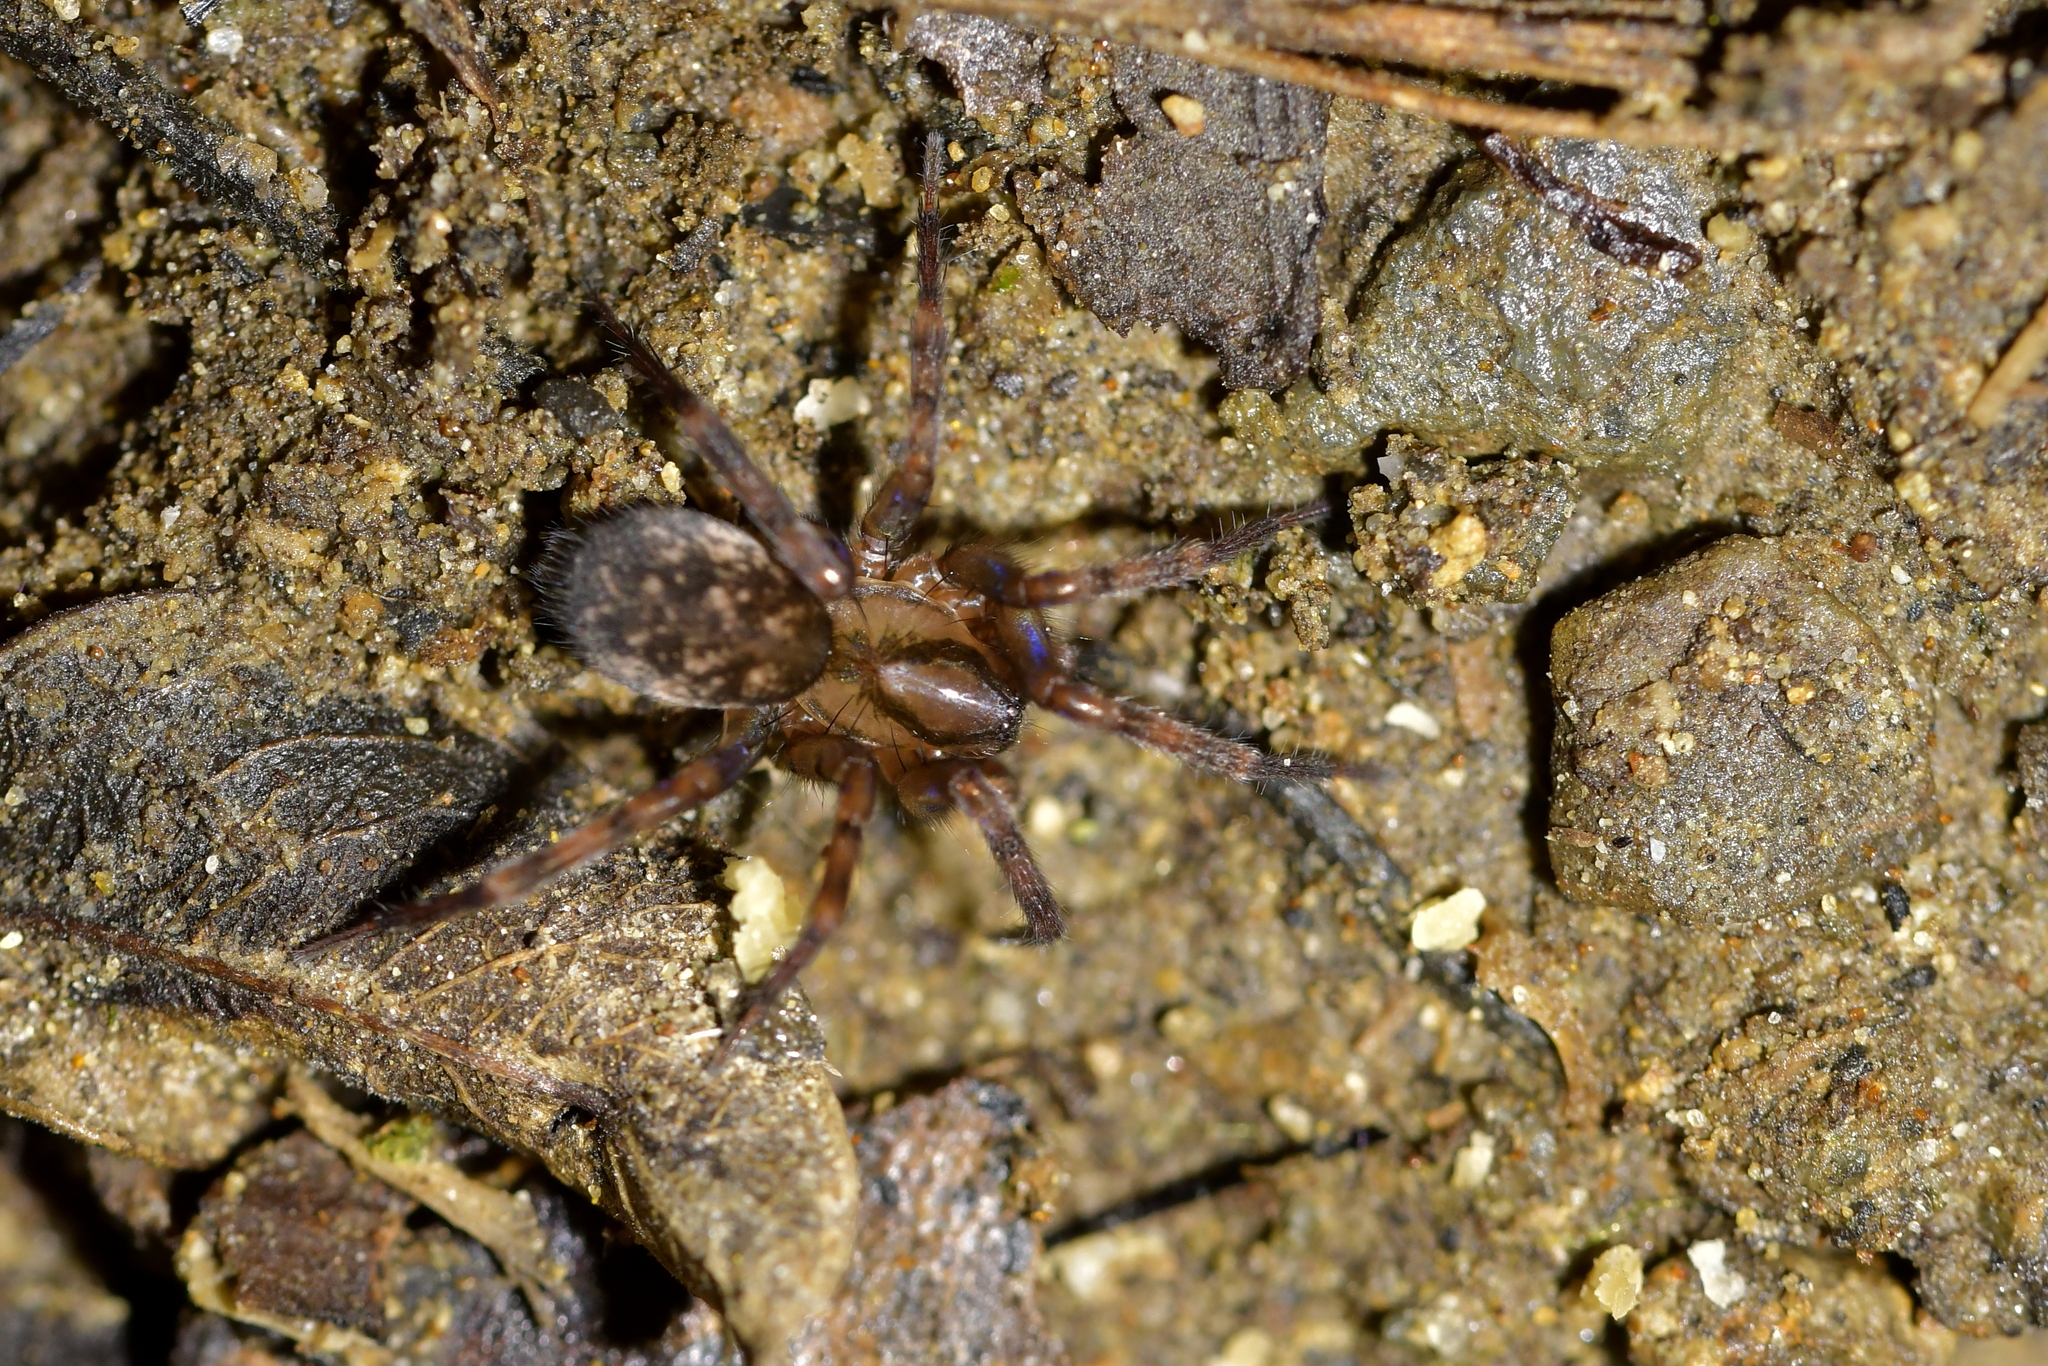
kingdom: Animalia
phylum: Arthropoda
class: Arachnida
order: Araneae
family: Cycloctenidae
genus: Orepukia
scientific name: Orepukia poppelwelli
